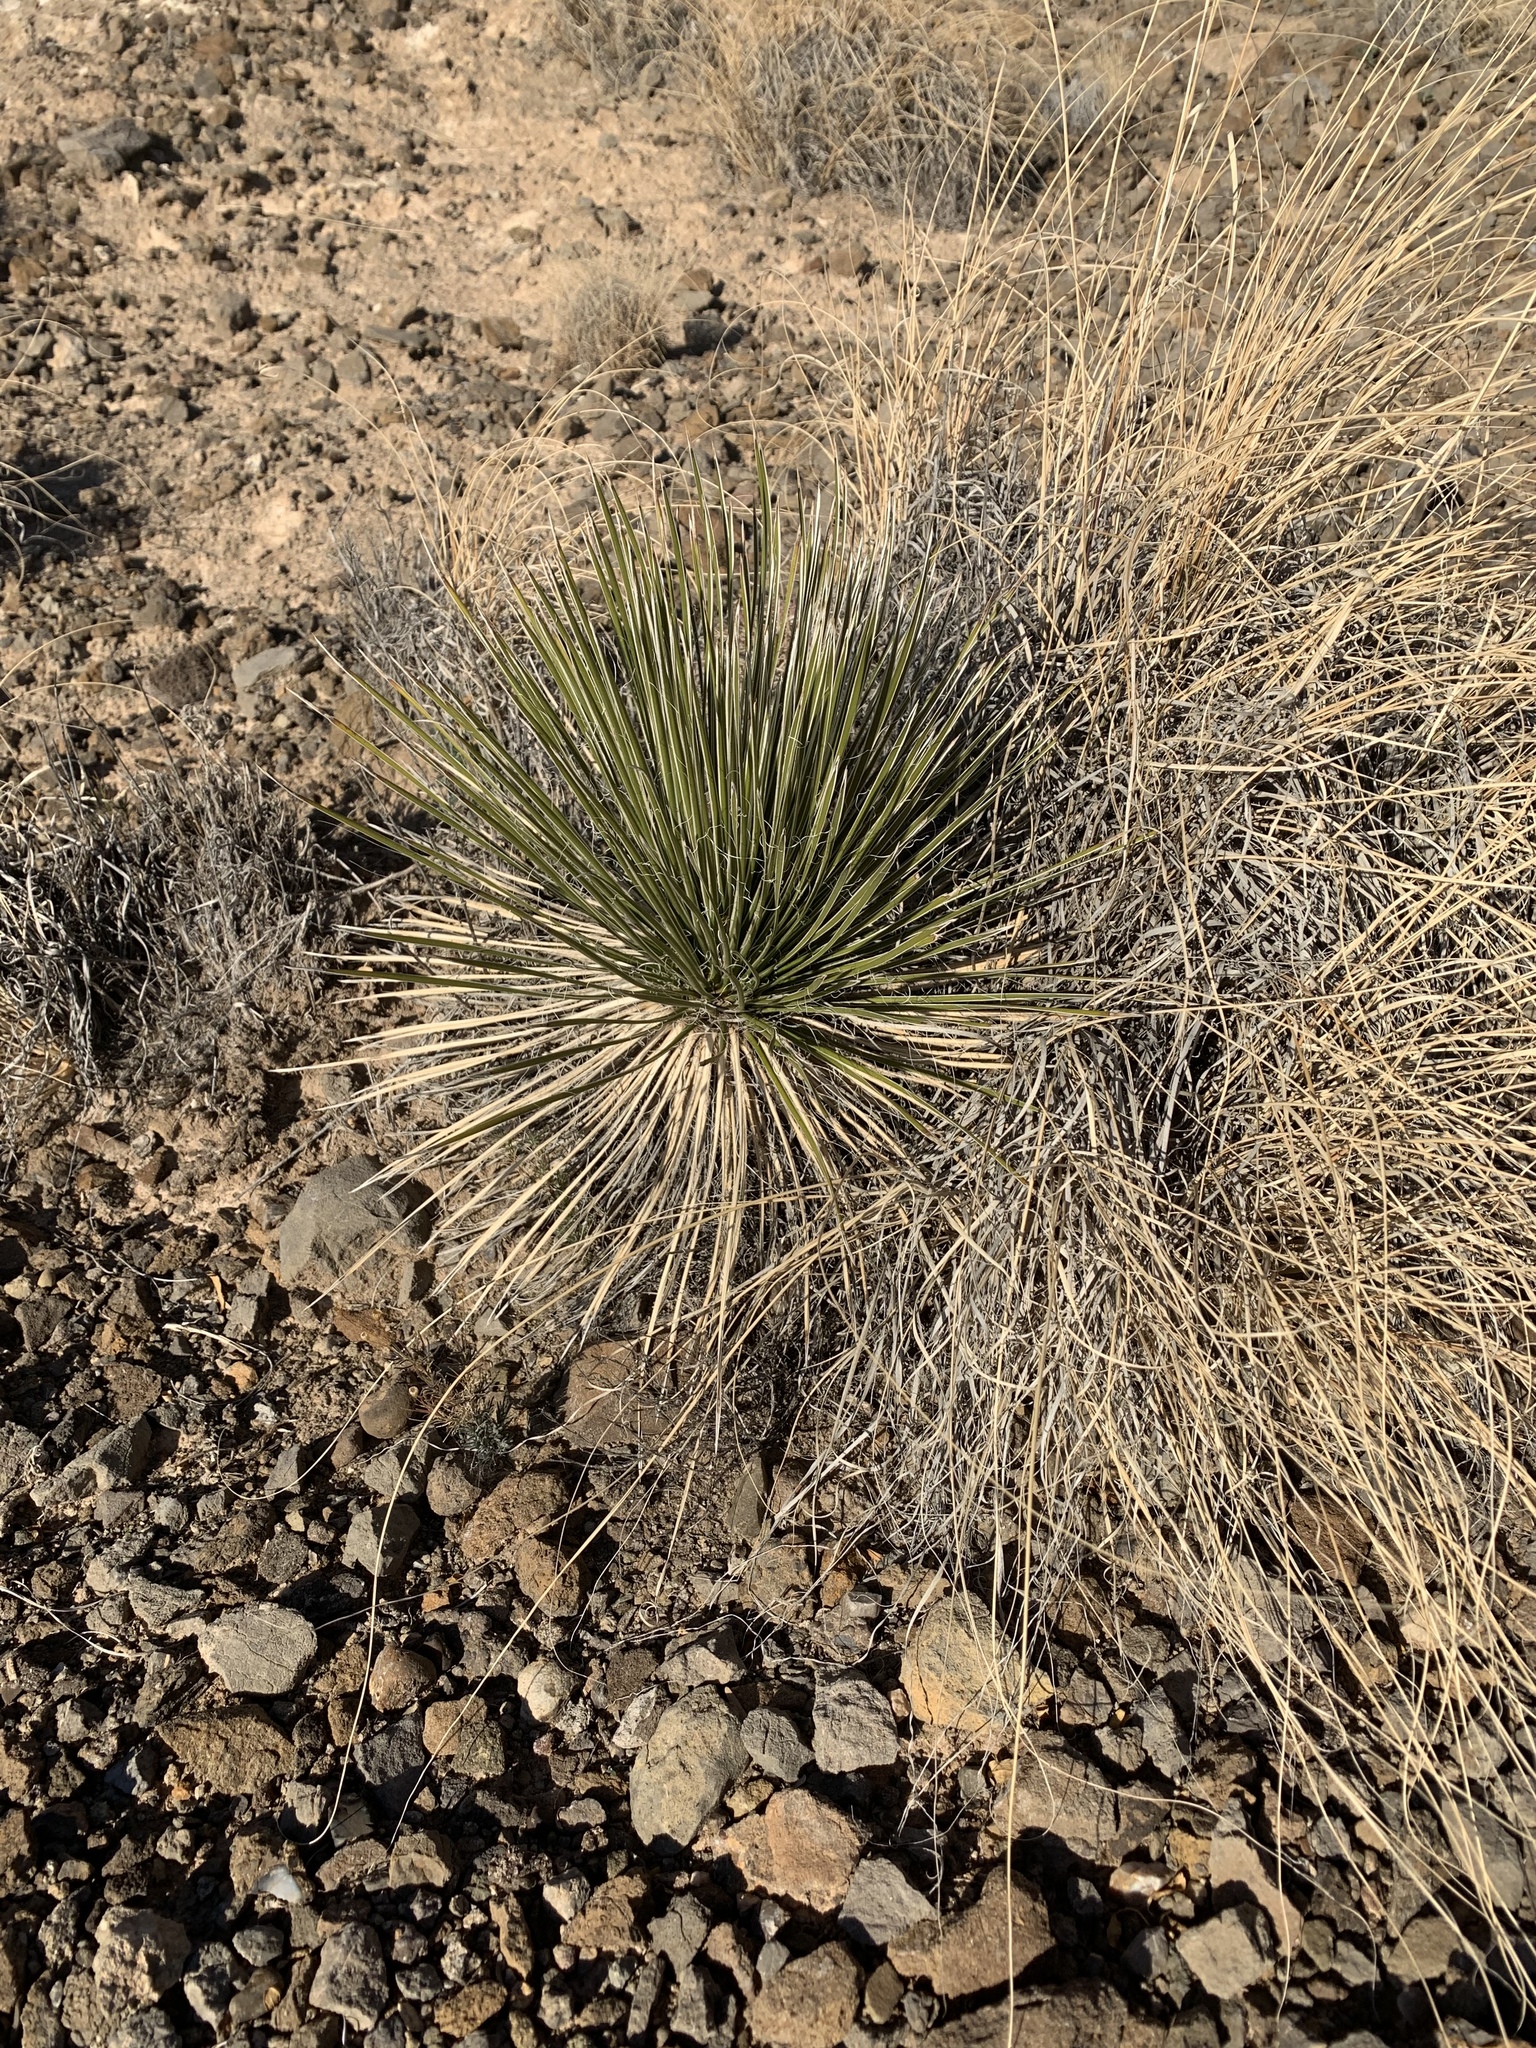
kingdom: Plantae
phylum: Tracheophyta
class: Liliopsida
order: Asparagales
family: Asparagaceae
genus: Yucca
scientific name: Yucca elata
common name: Palmella
